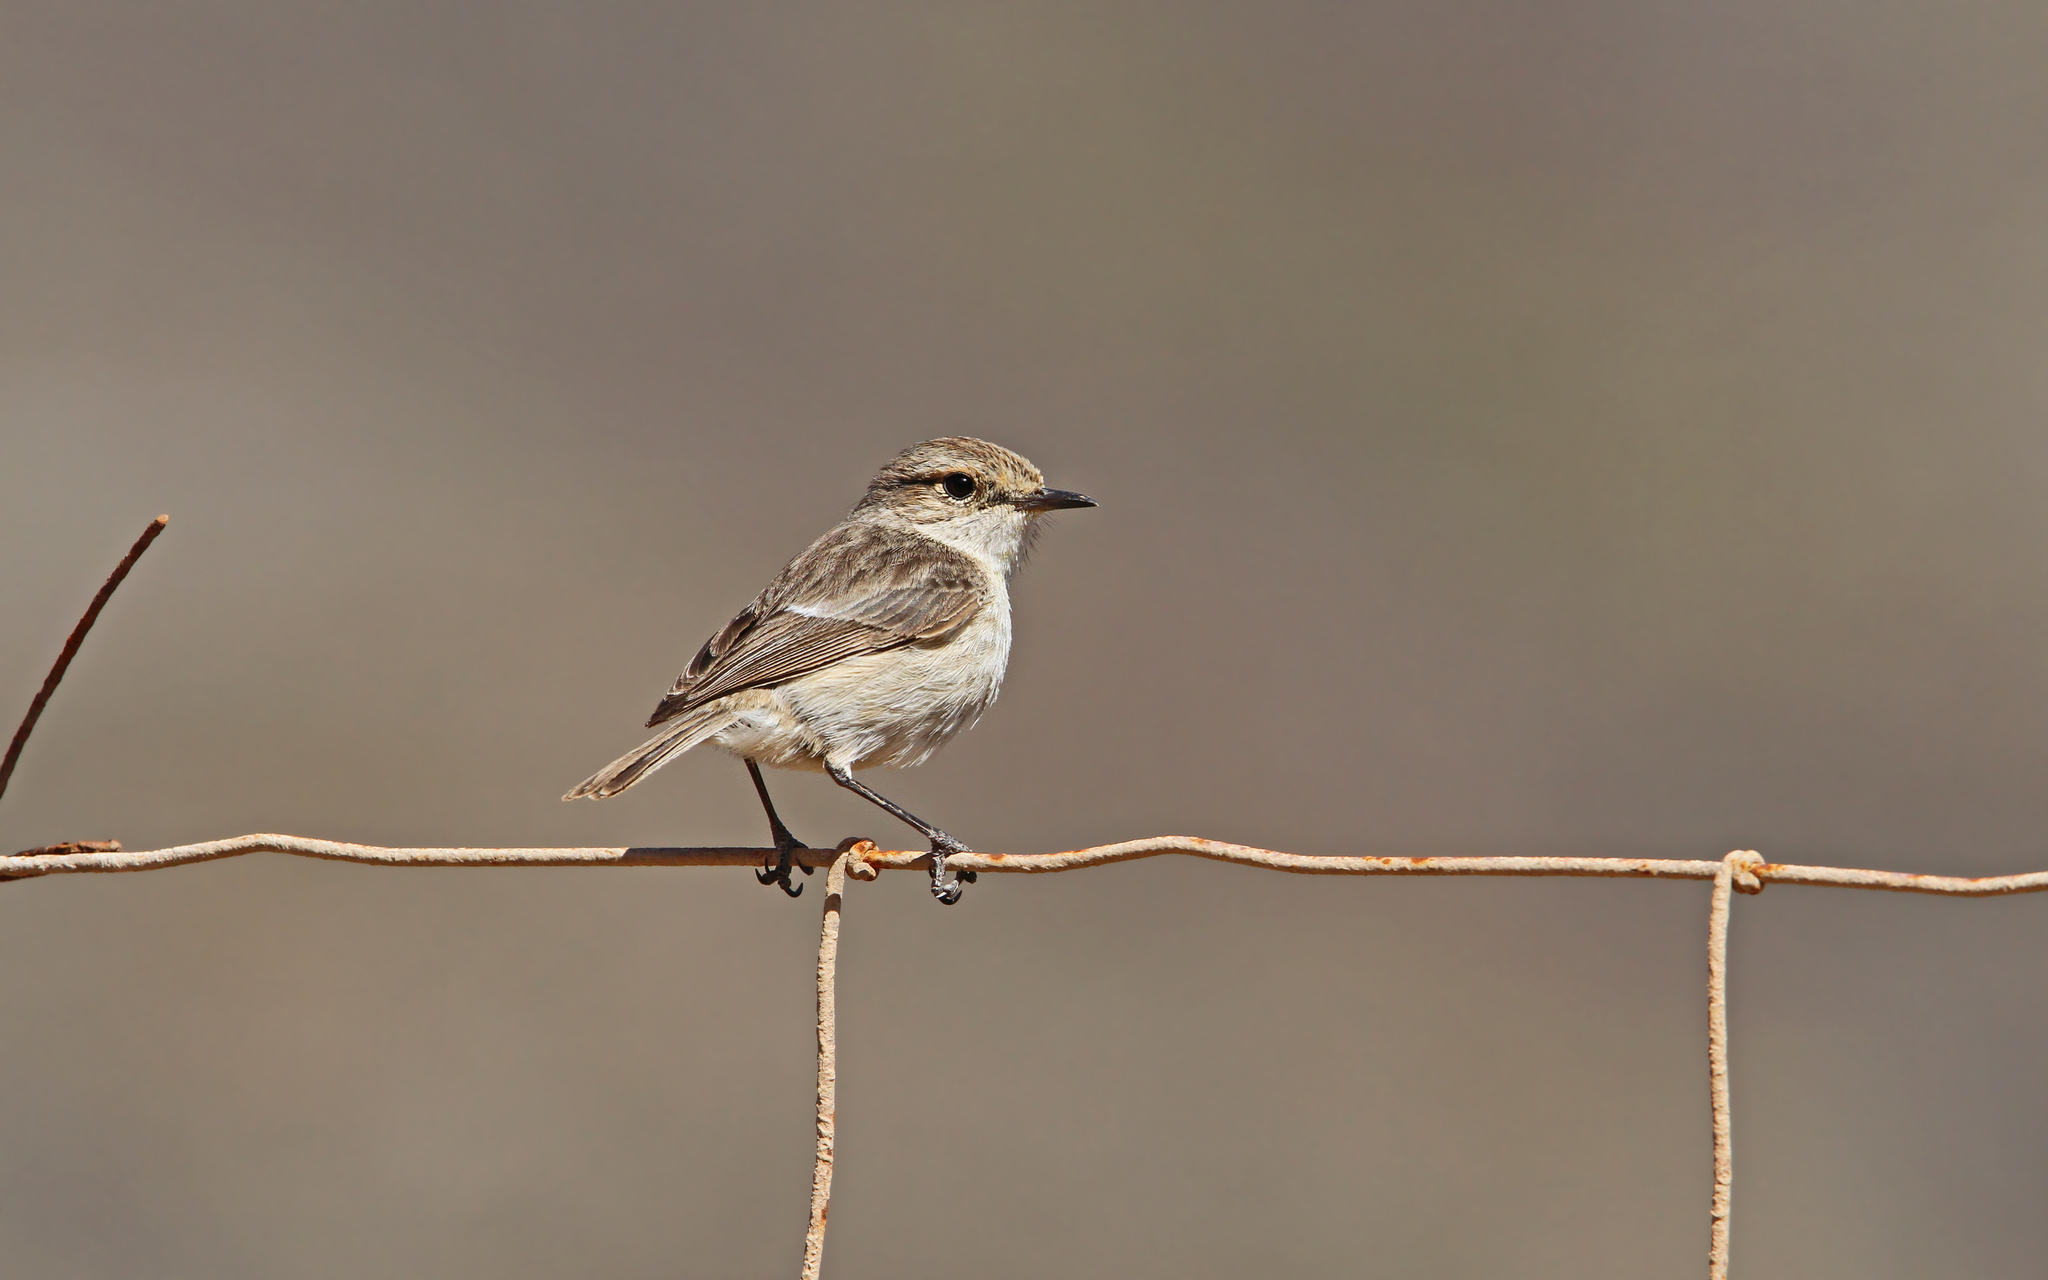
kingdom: Animalia
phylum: Chordata
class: Aves
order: Passeriformes
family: Muscicapidae
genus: Saxicola
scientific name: Saxicola dacotiae
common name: Canary islands stonechat
